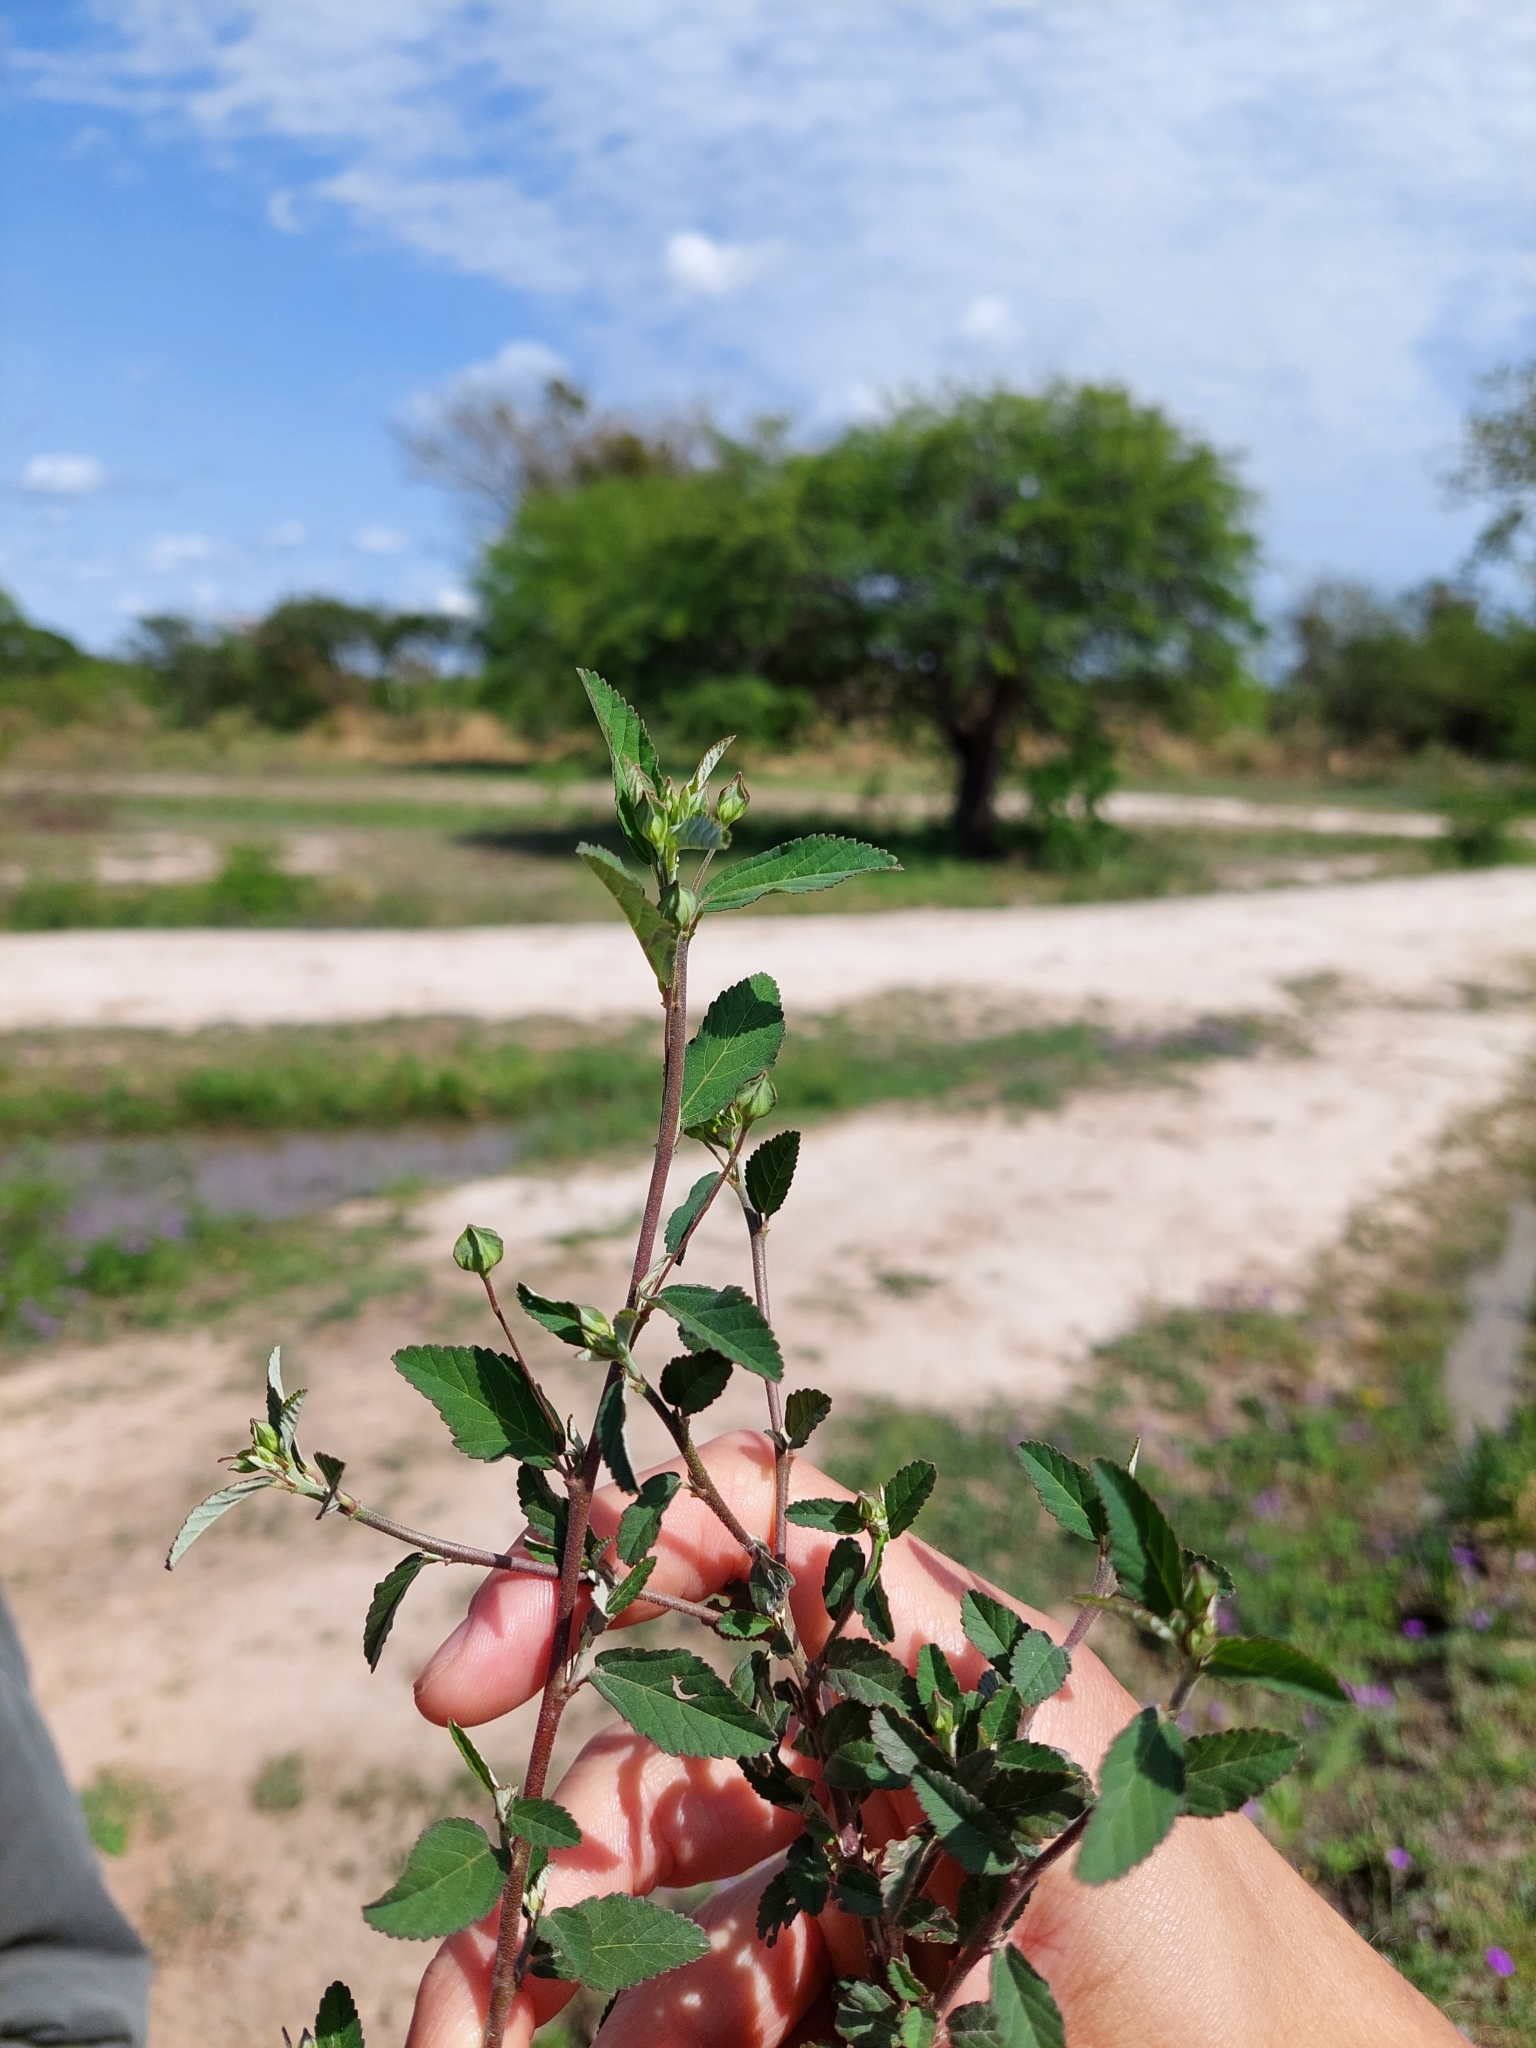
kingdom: Plantae
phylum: Tracheophyta
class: Magnoliopsida
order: Malvales
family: Malvaceae
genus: Sida
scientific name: Sida rhombifolia
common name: Queensland-hemp
